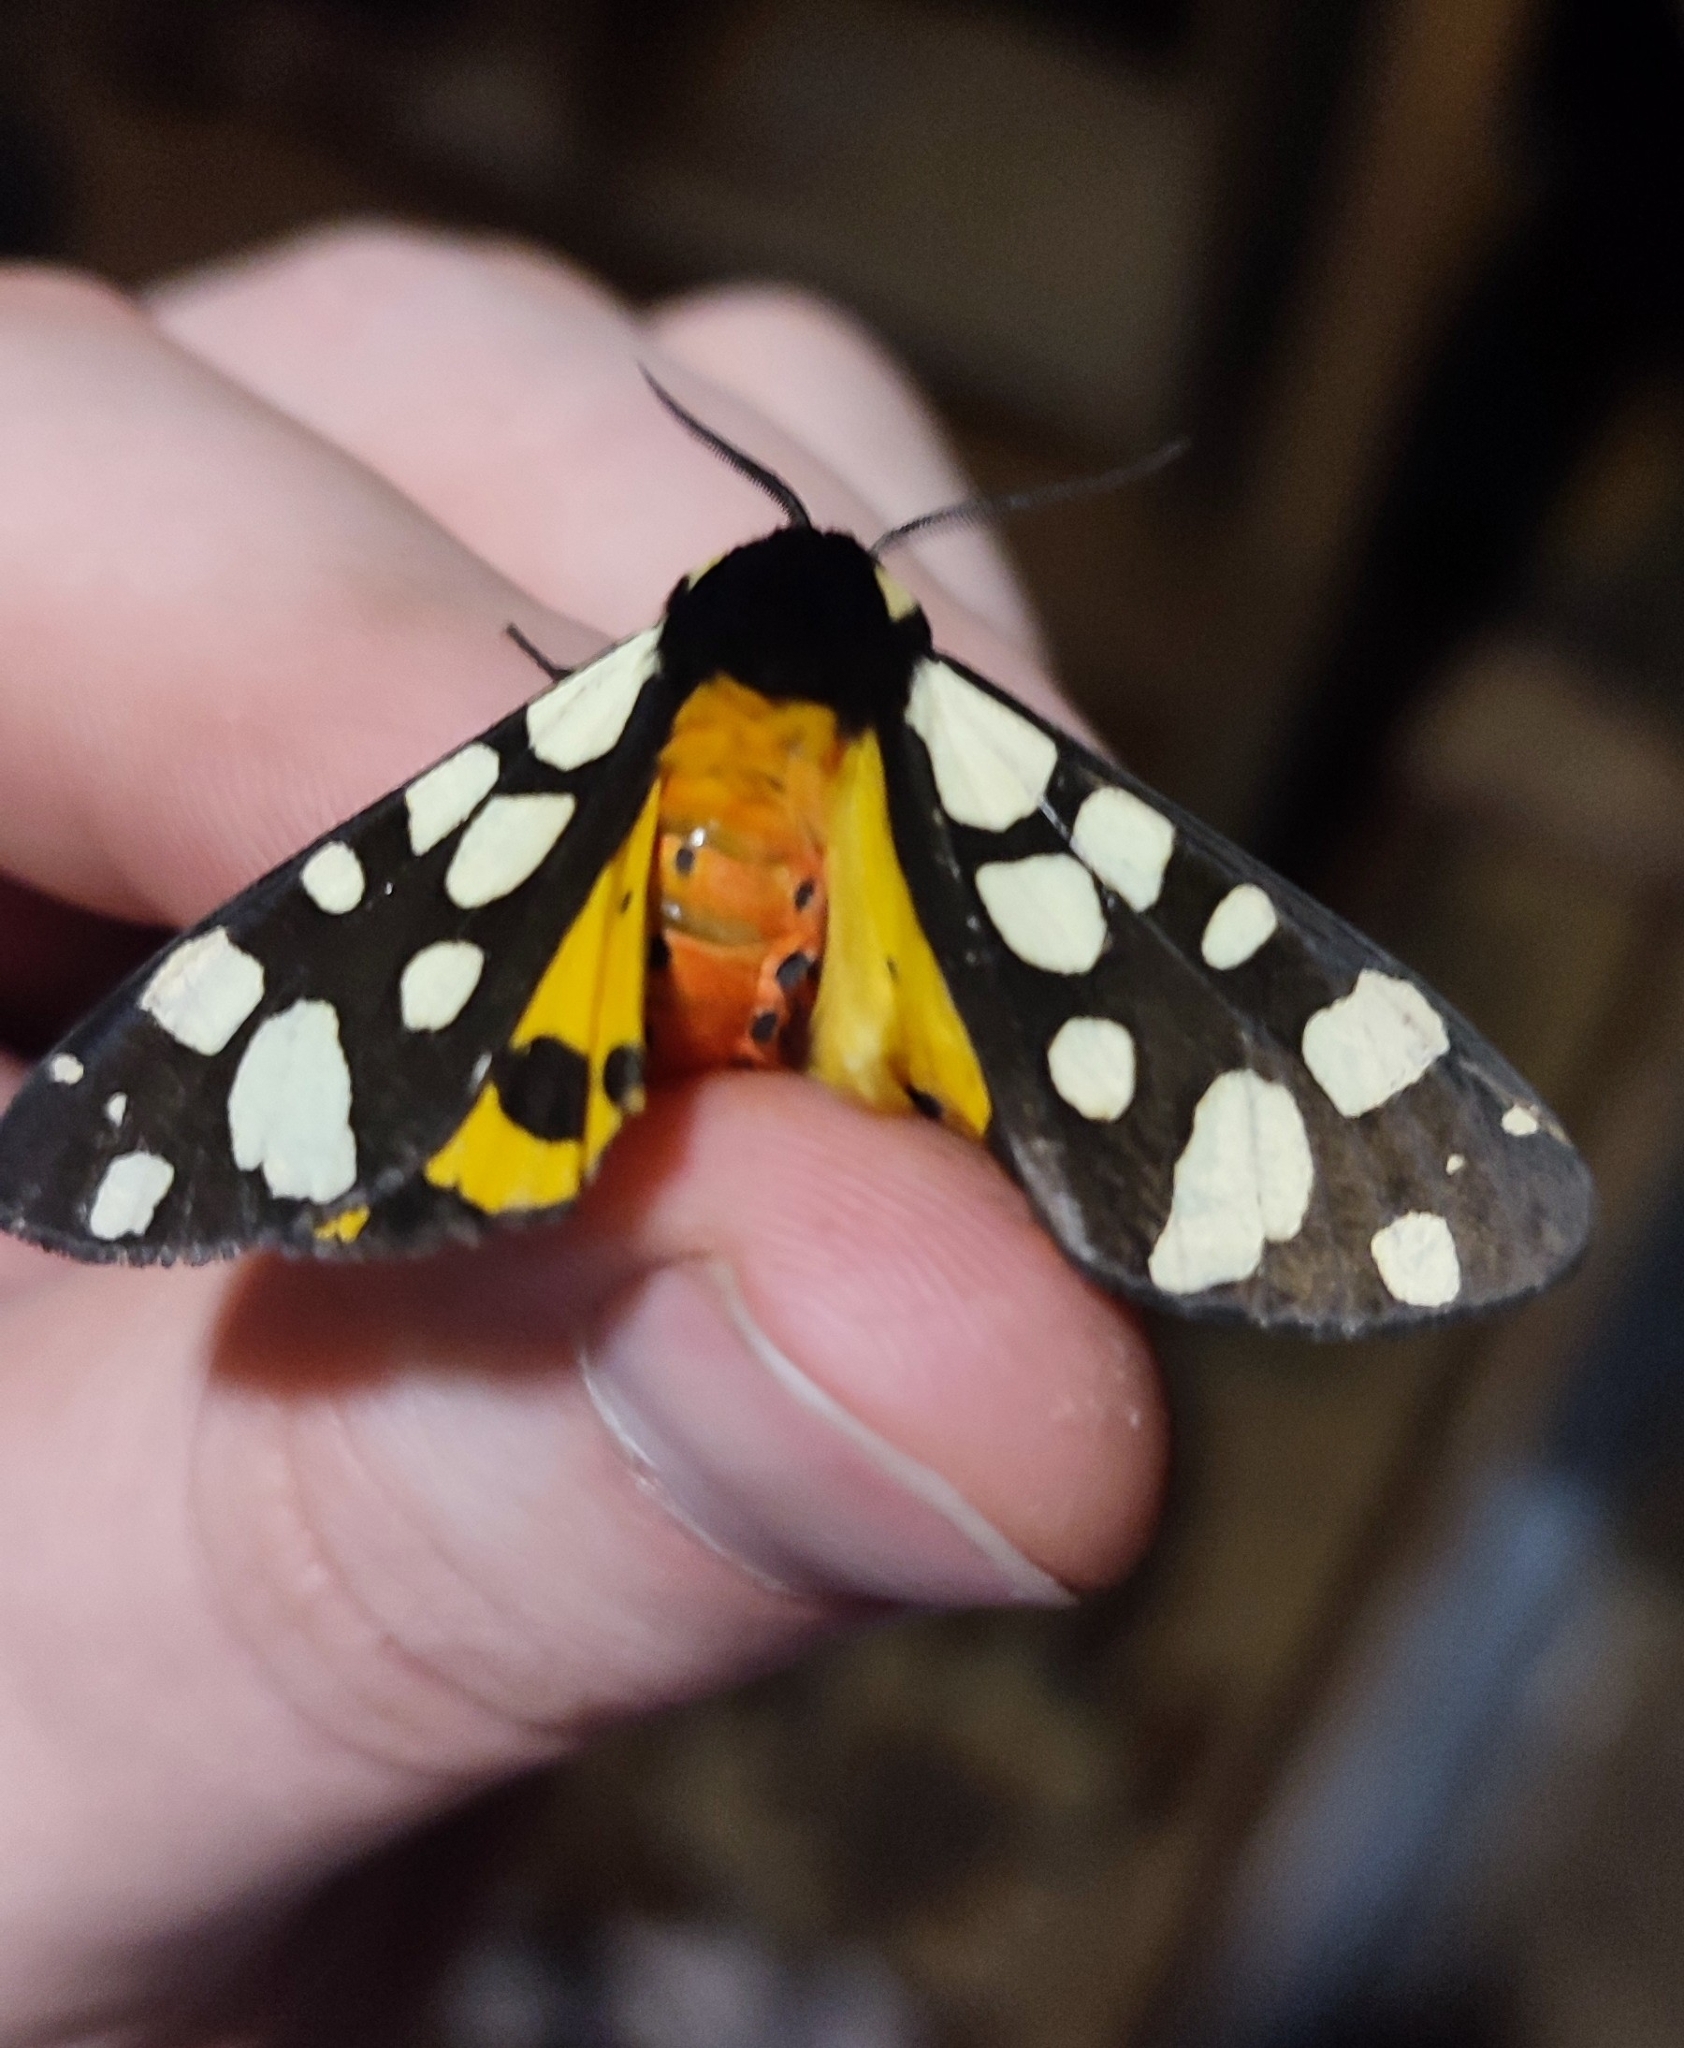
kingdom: Animalia
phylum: Arthropoda
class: Insecta
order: Lepidoptera
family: Erebidae
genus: Epicallia
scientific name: Epicallia villica
